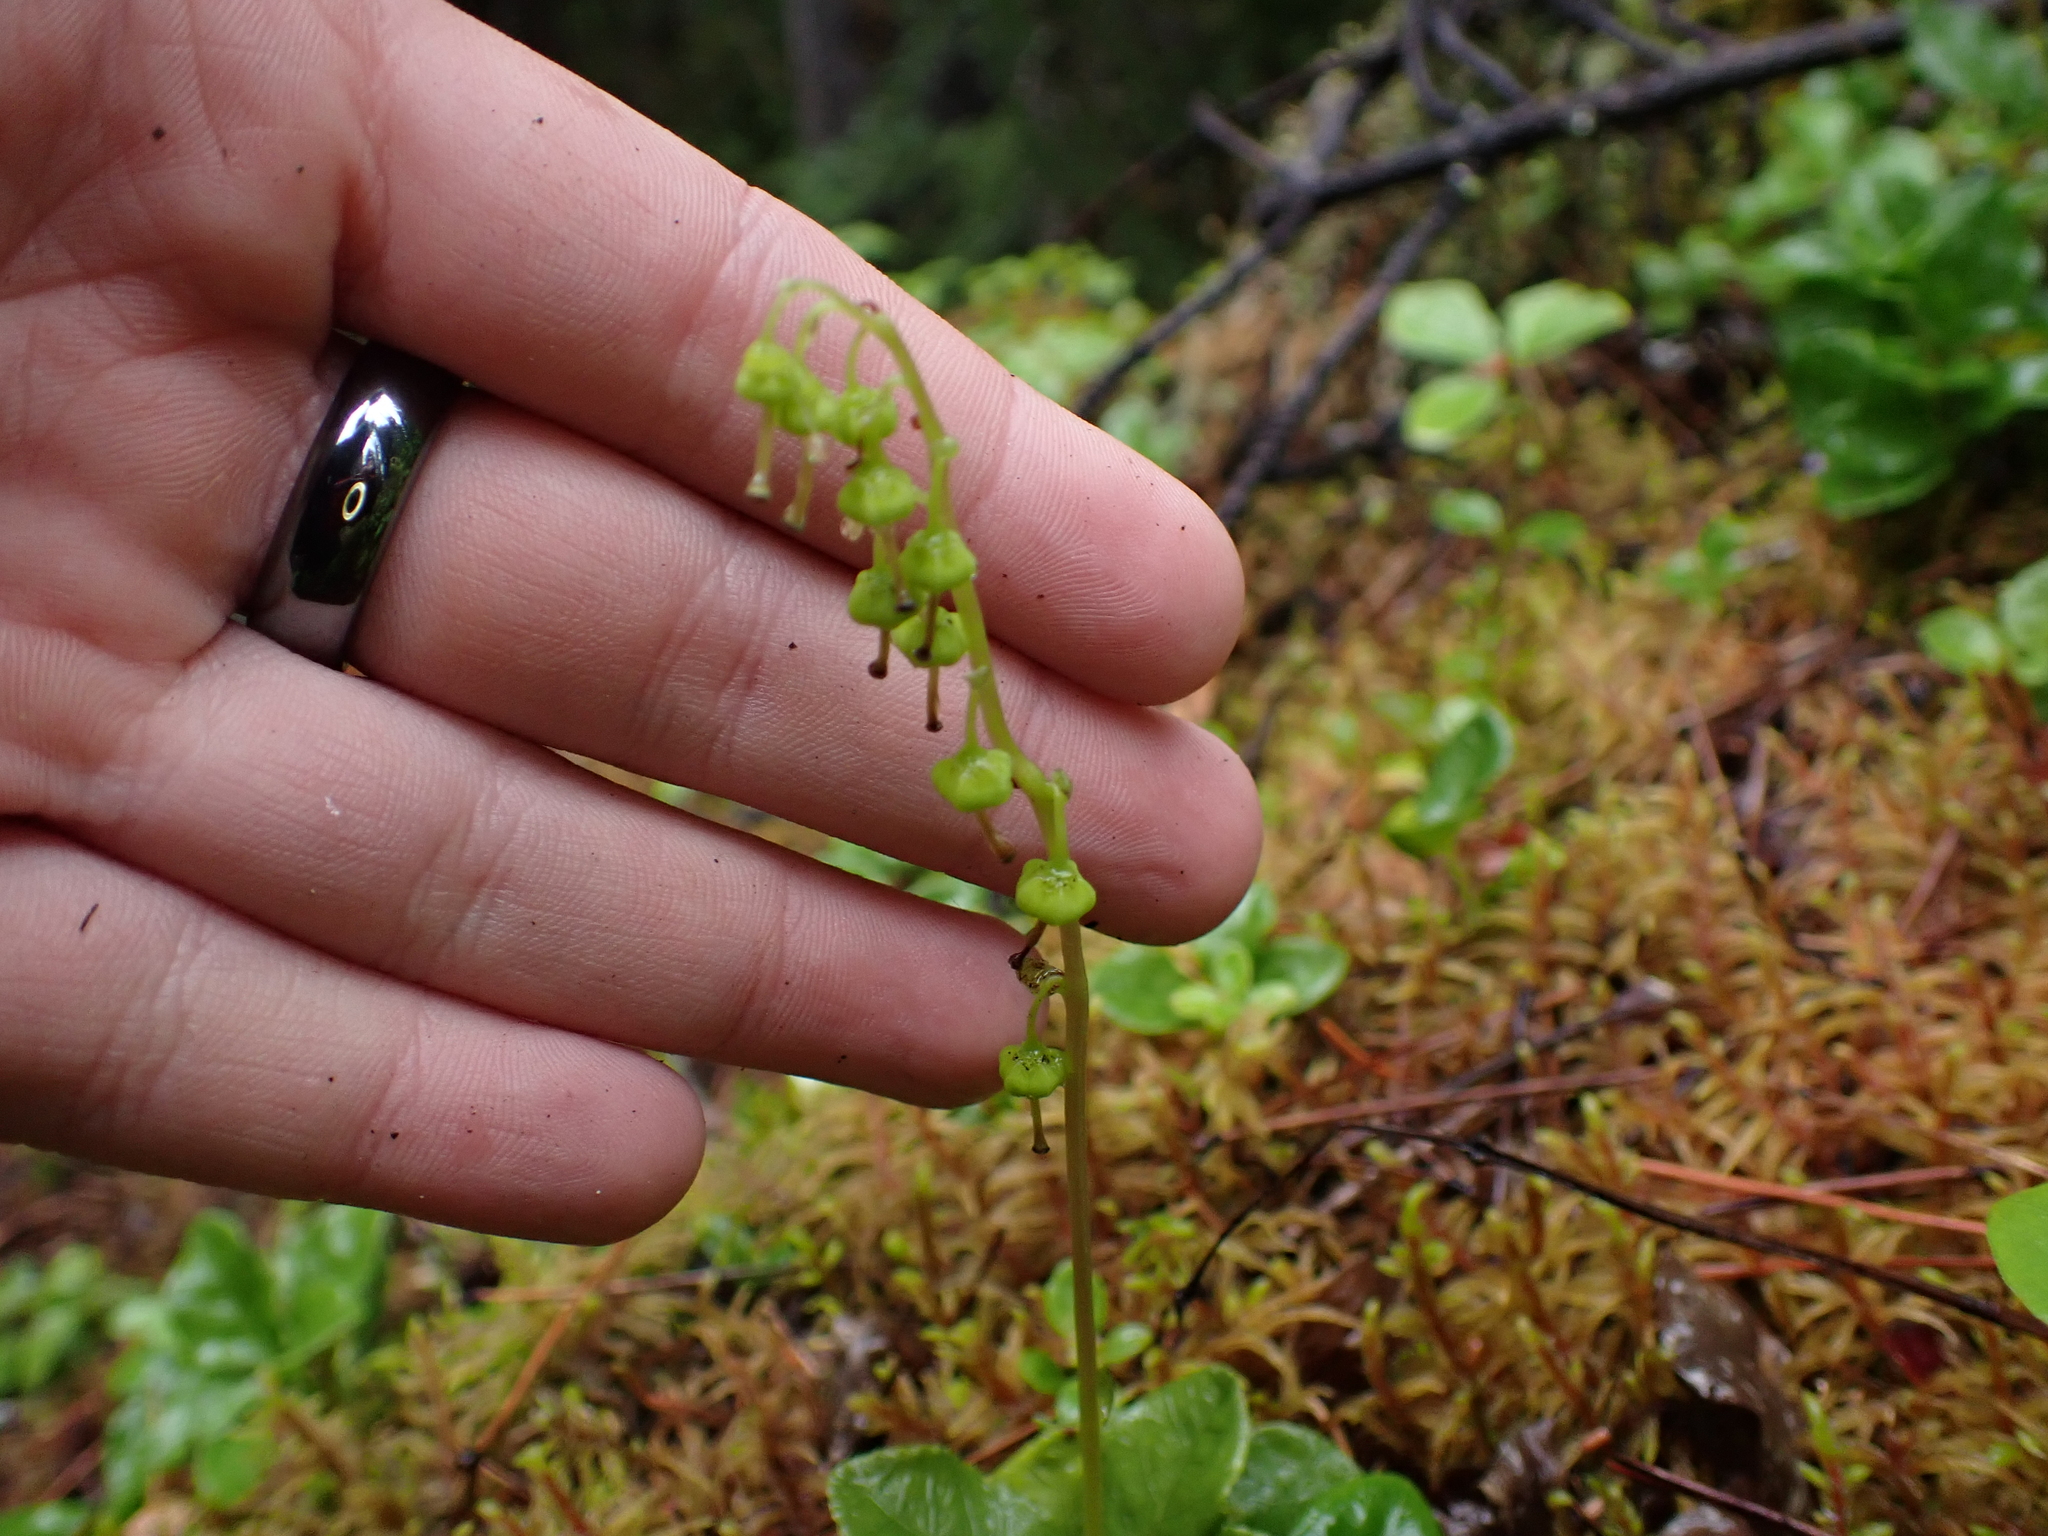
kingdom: Plantae
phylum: Tracheophyta
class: Magnoliopsida
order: Ericales
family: Ericaceae
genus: Orthilia
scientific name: Orthilia secunda
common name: One-sided orthilia
